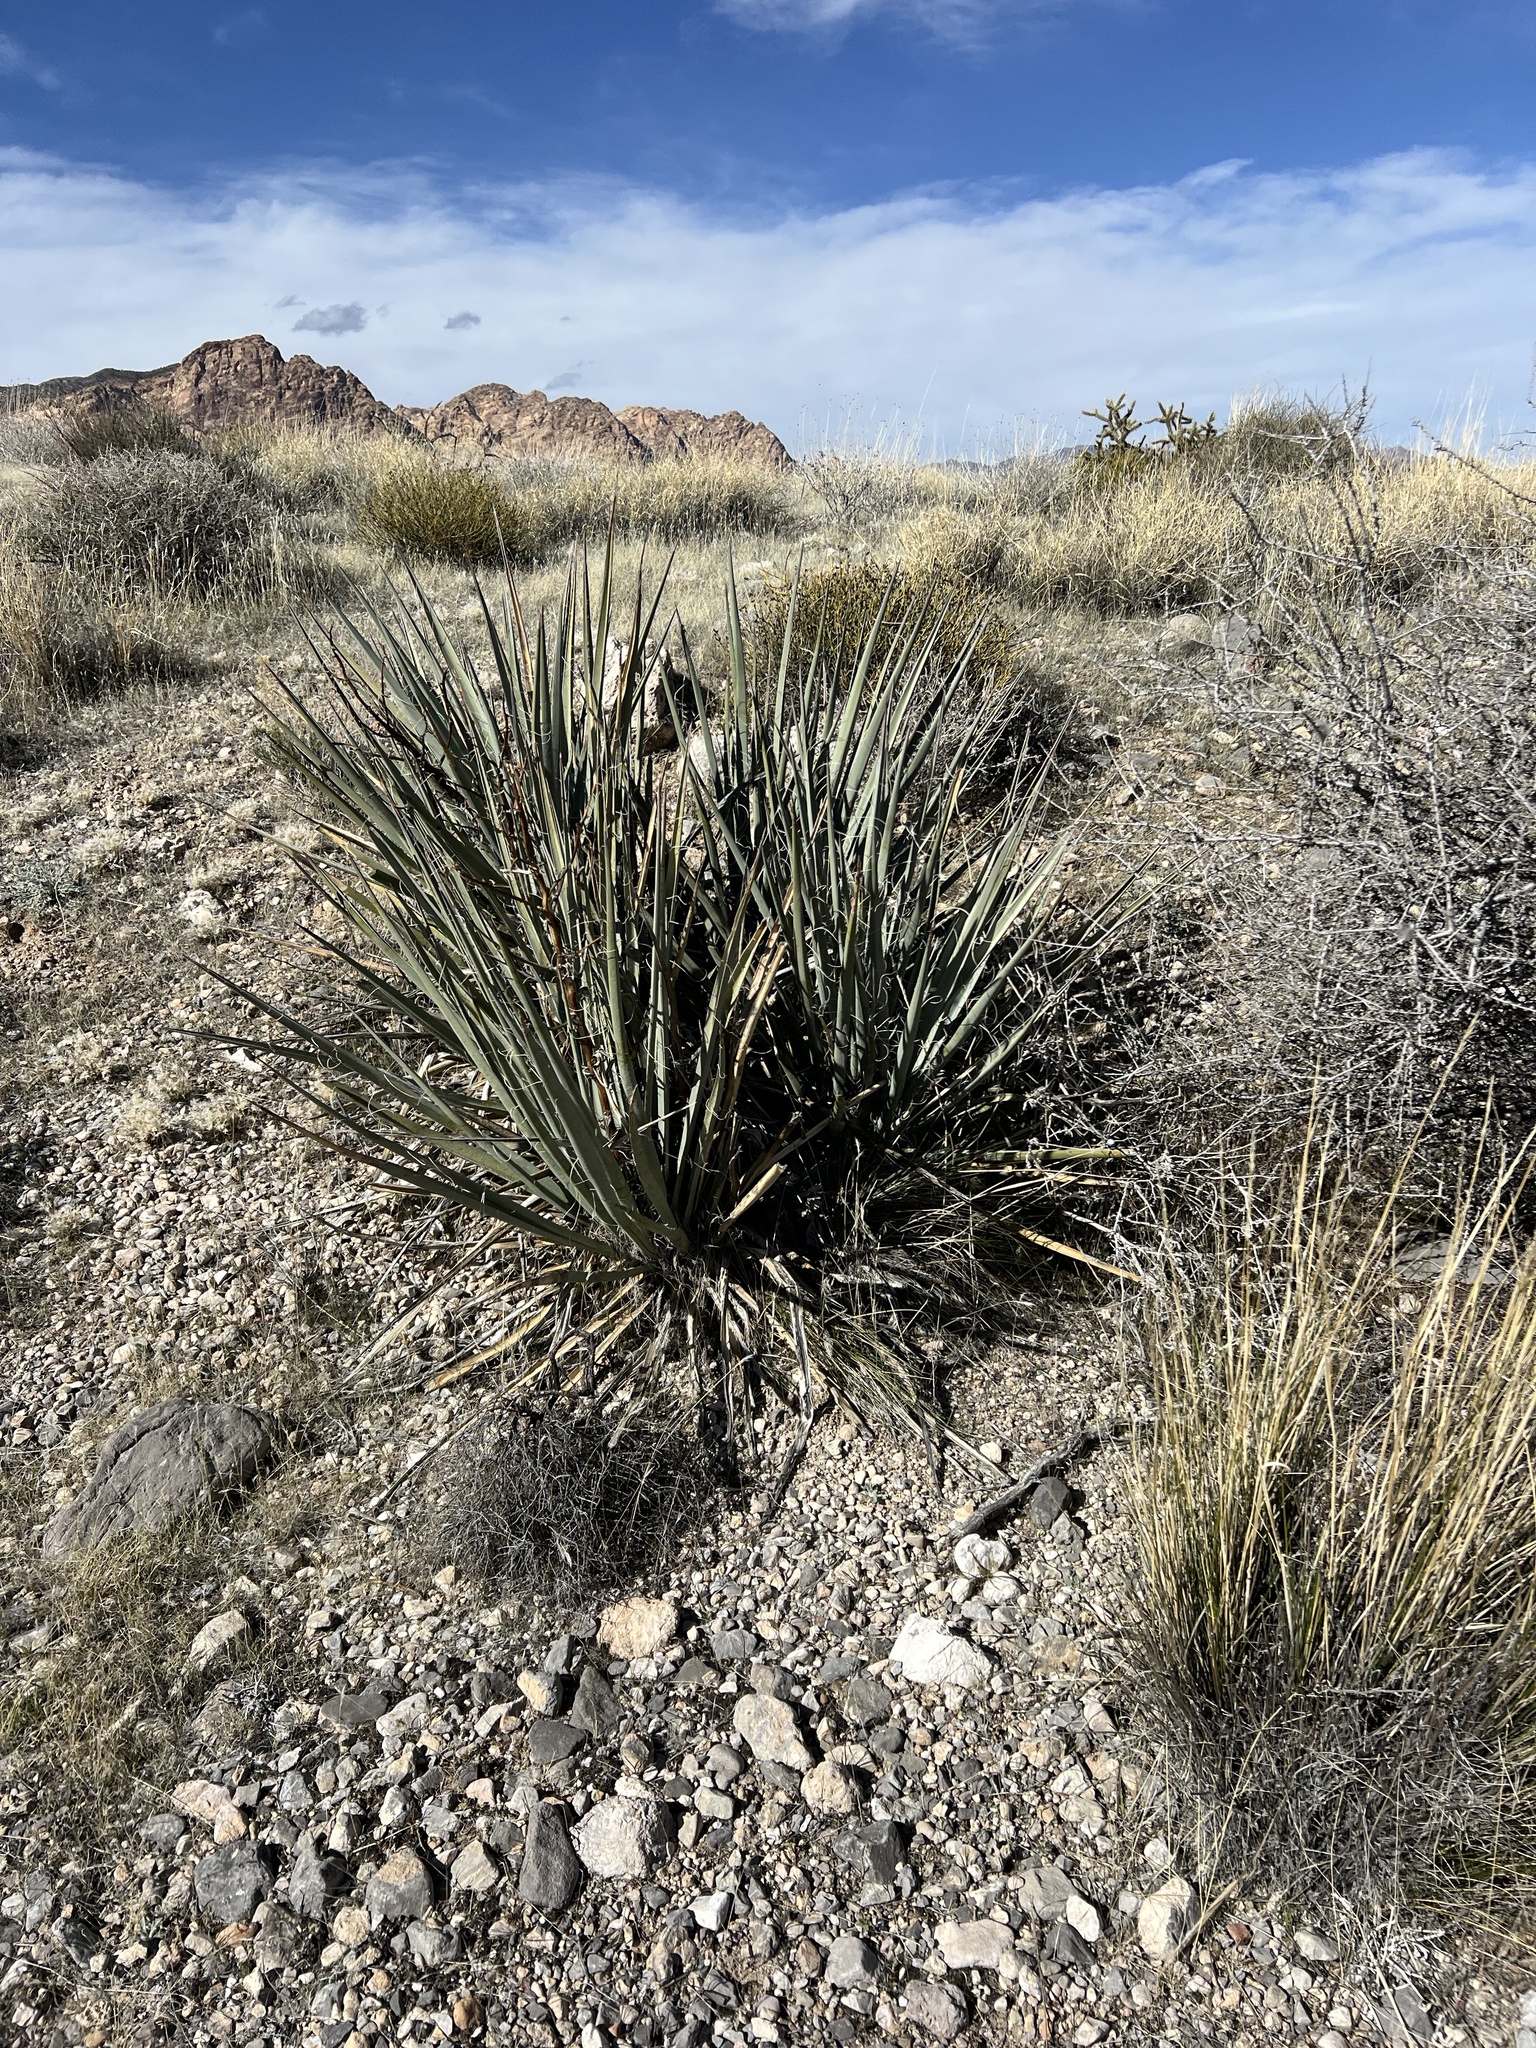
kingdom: Plantae
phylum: Tracheophyta
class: Liliopsida
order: Asparagales
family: Asparagaceae
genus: Yucca
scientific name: Yucca baccata
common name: Banana yucca
